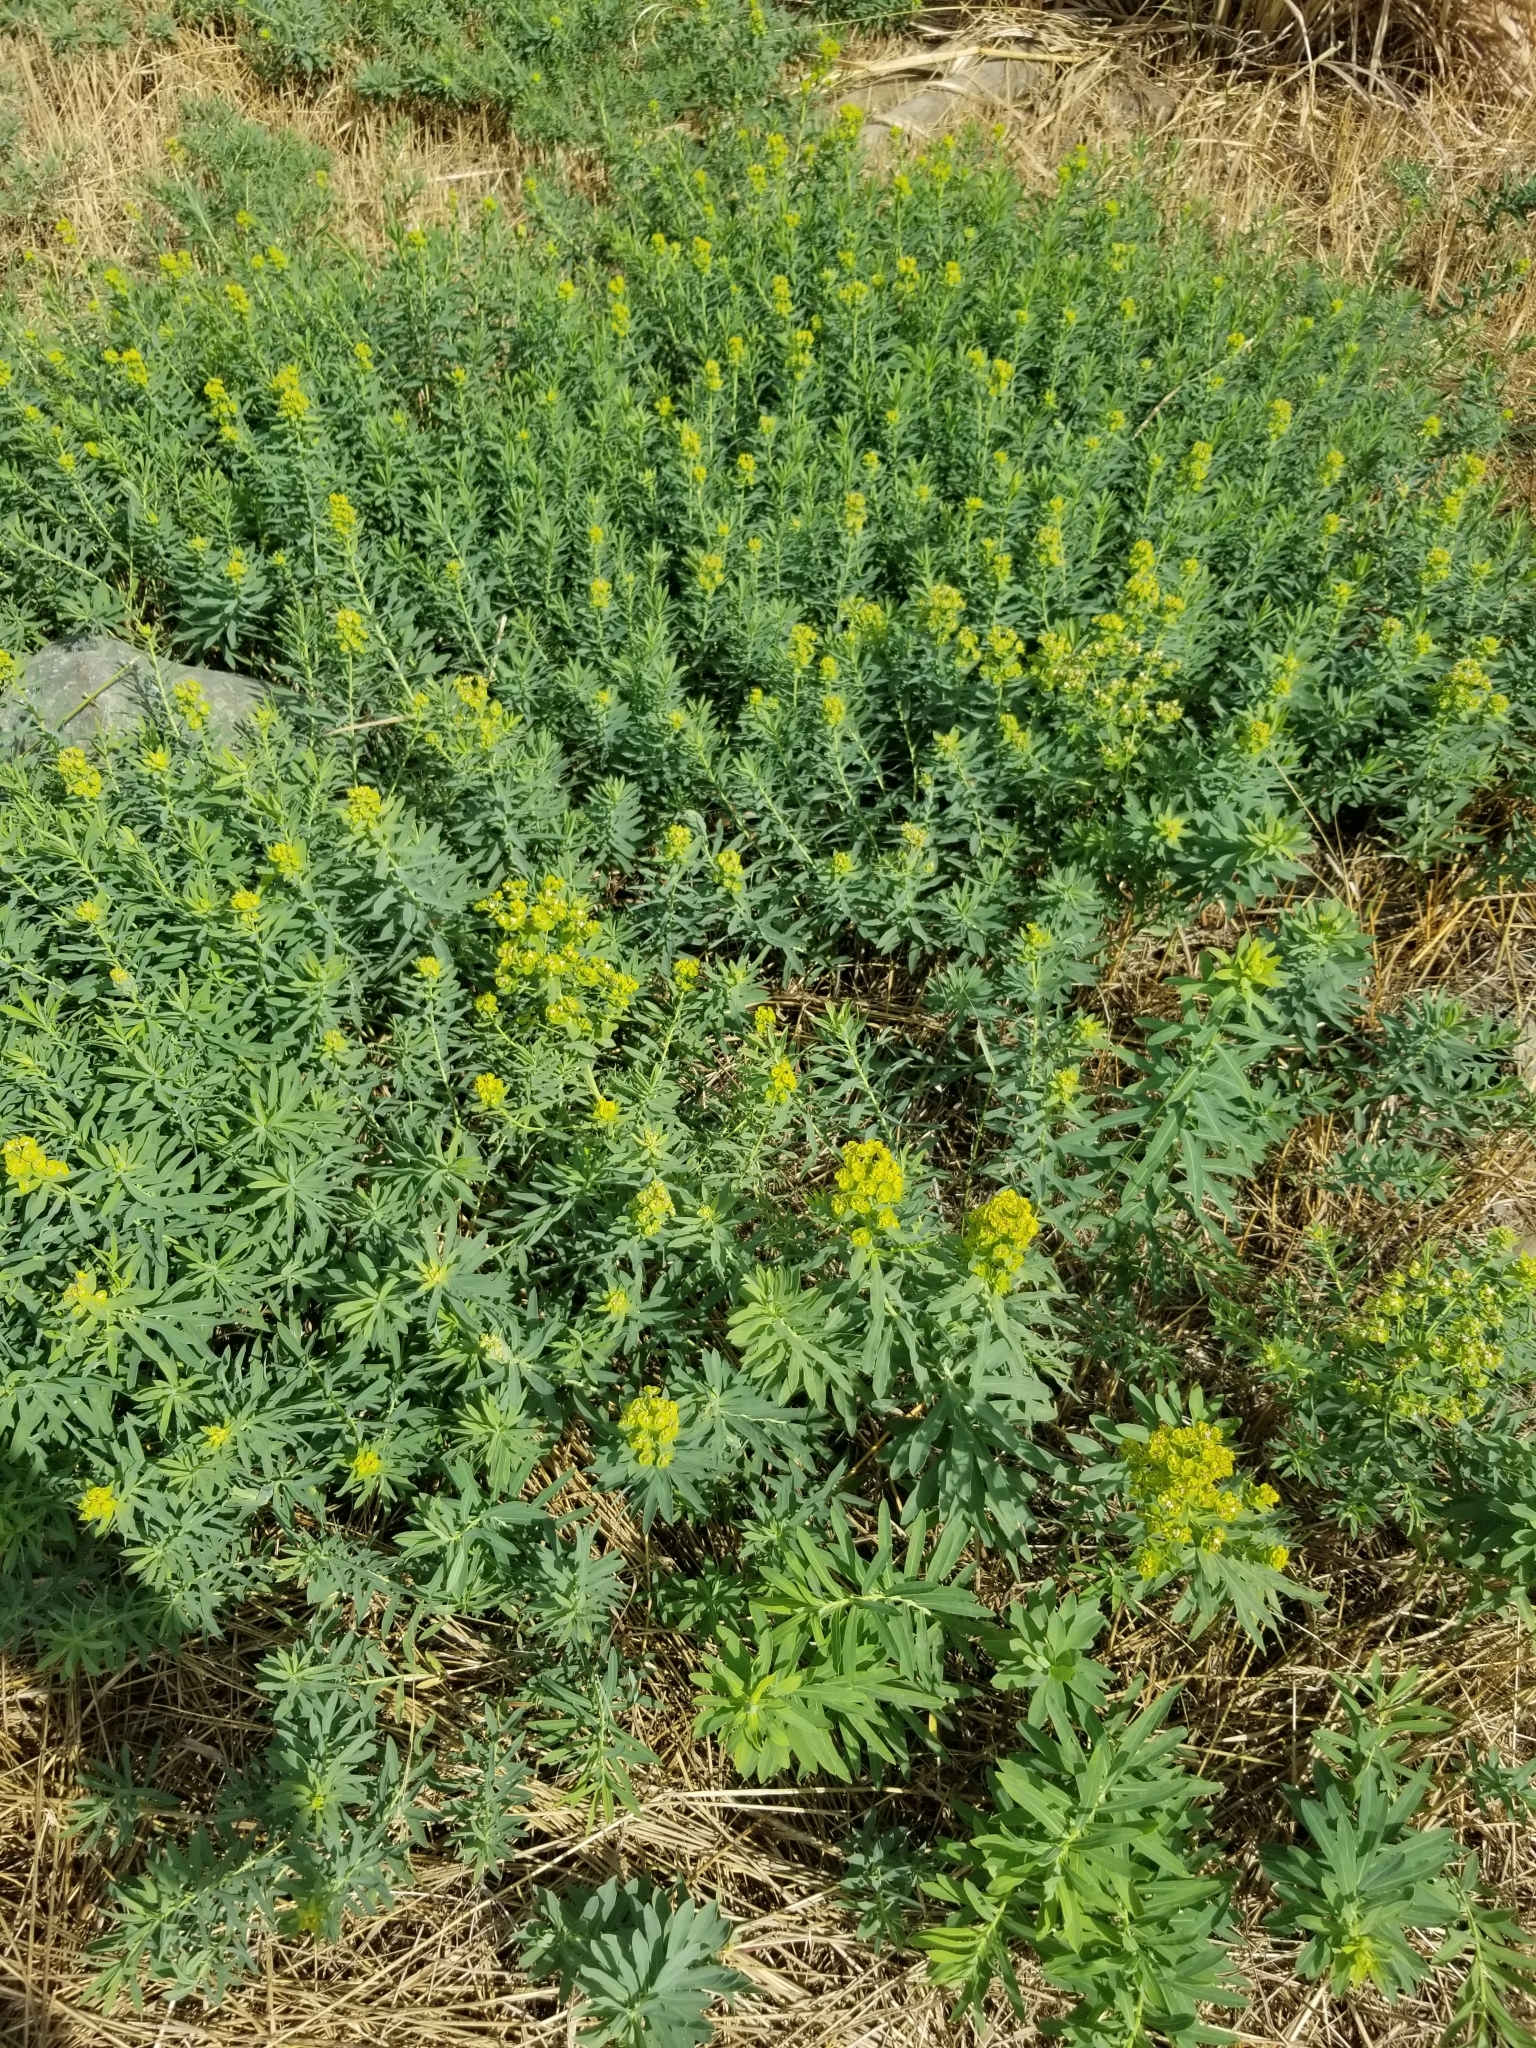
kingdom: Plantae
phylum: Tracheophyta
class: Magnoliopsida
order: Malpighiales
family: Euphorbiaceae
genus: Euphorbia
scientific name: Euphorbia esula
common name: Leafy spurge
